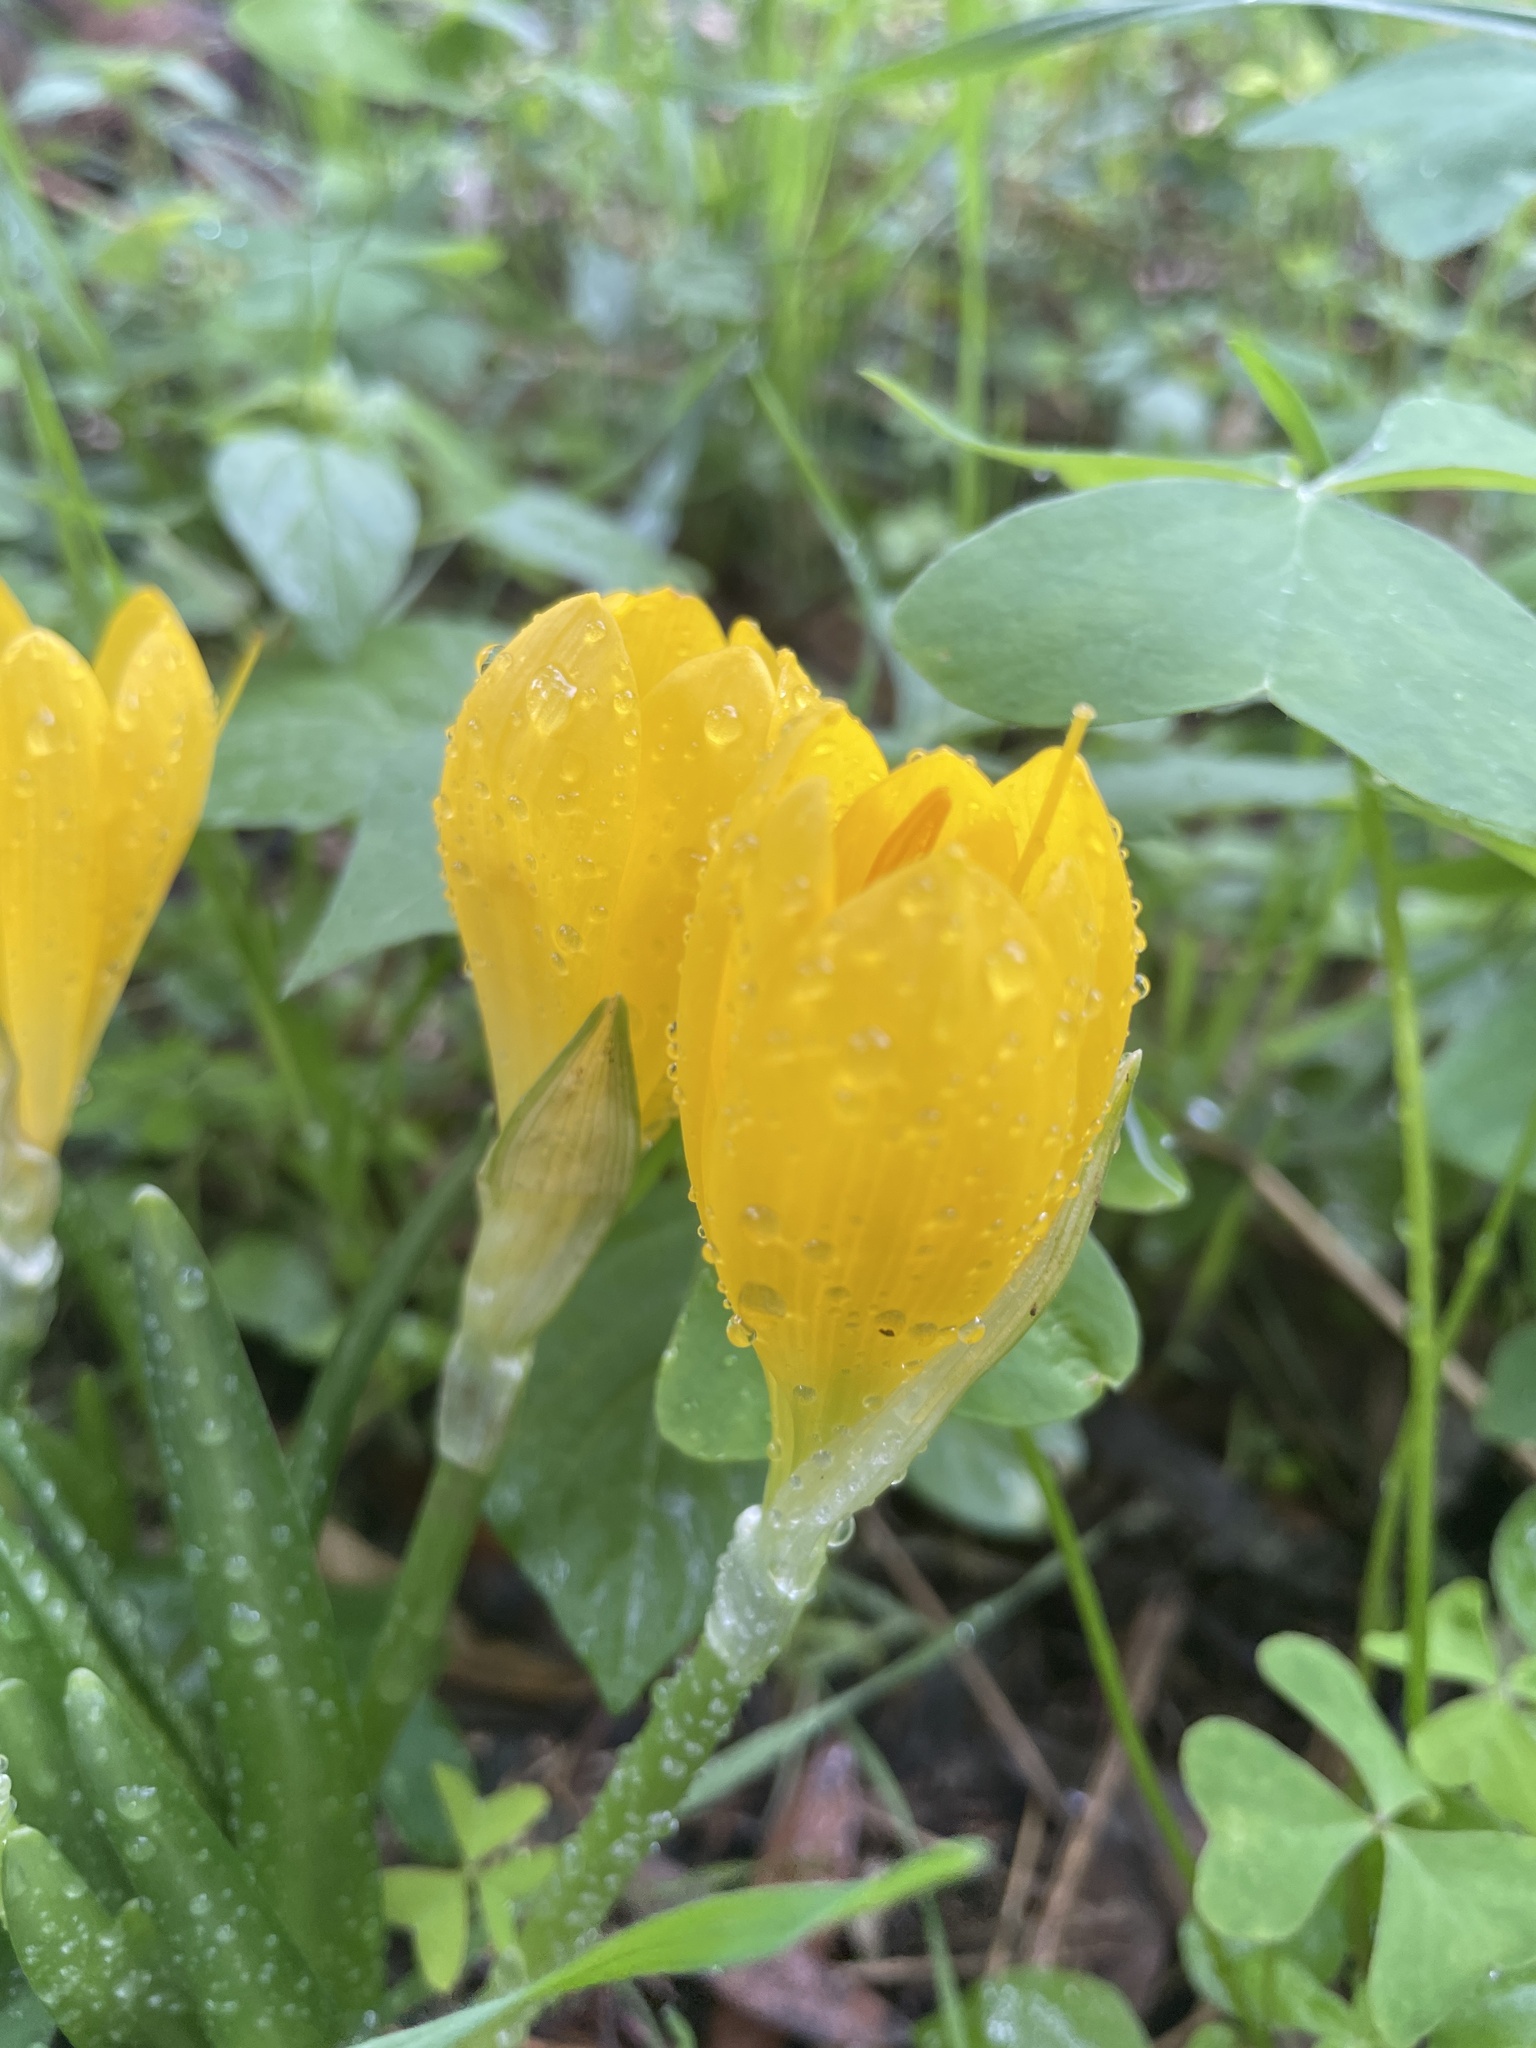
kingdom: Plantae
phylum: Tracheophyta
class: Liliopsida
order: Asparagales
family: Amaryllidaceae
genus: Sternbergia
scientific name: Sternbergia lutea
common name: Winter daffodil
